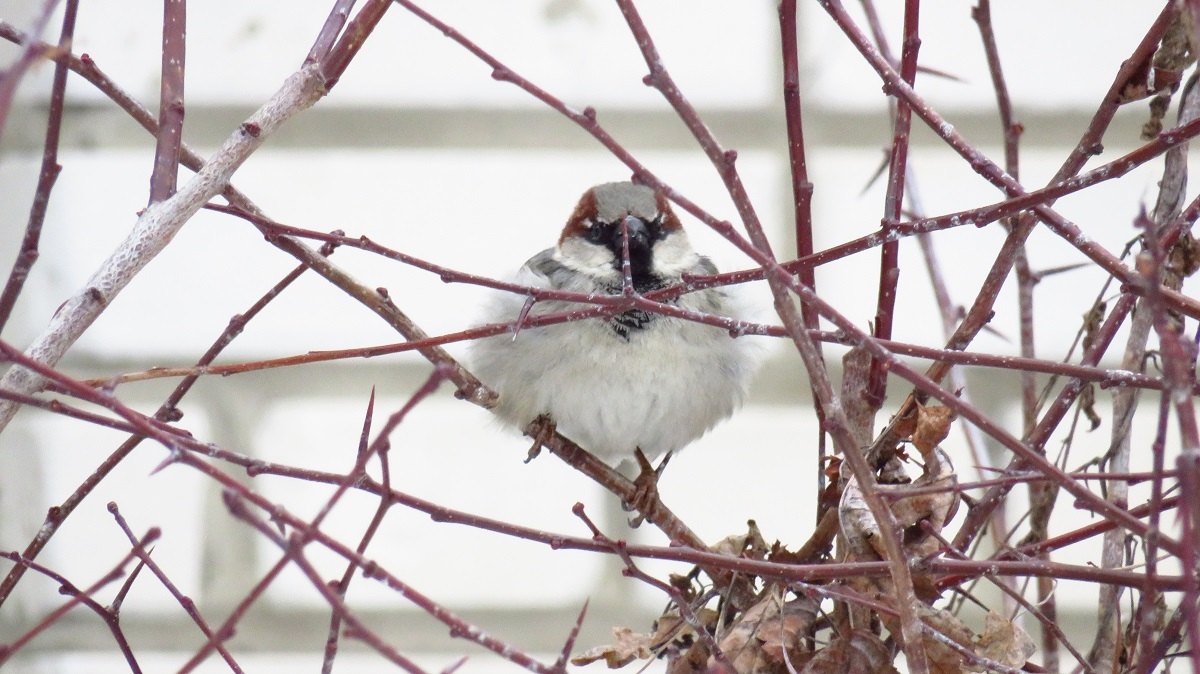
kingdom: Animalia
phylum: Chordata
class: Aves
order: Passeriformes
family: Passeridae
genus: Passer
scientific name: Passer domesticus
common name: House sparrow
